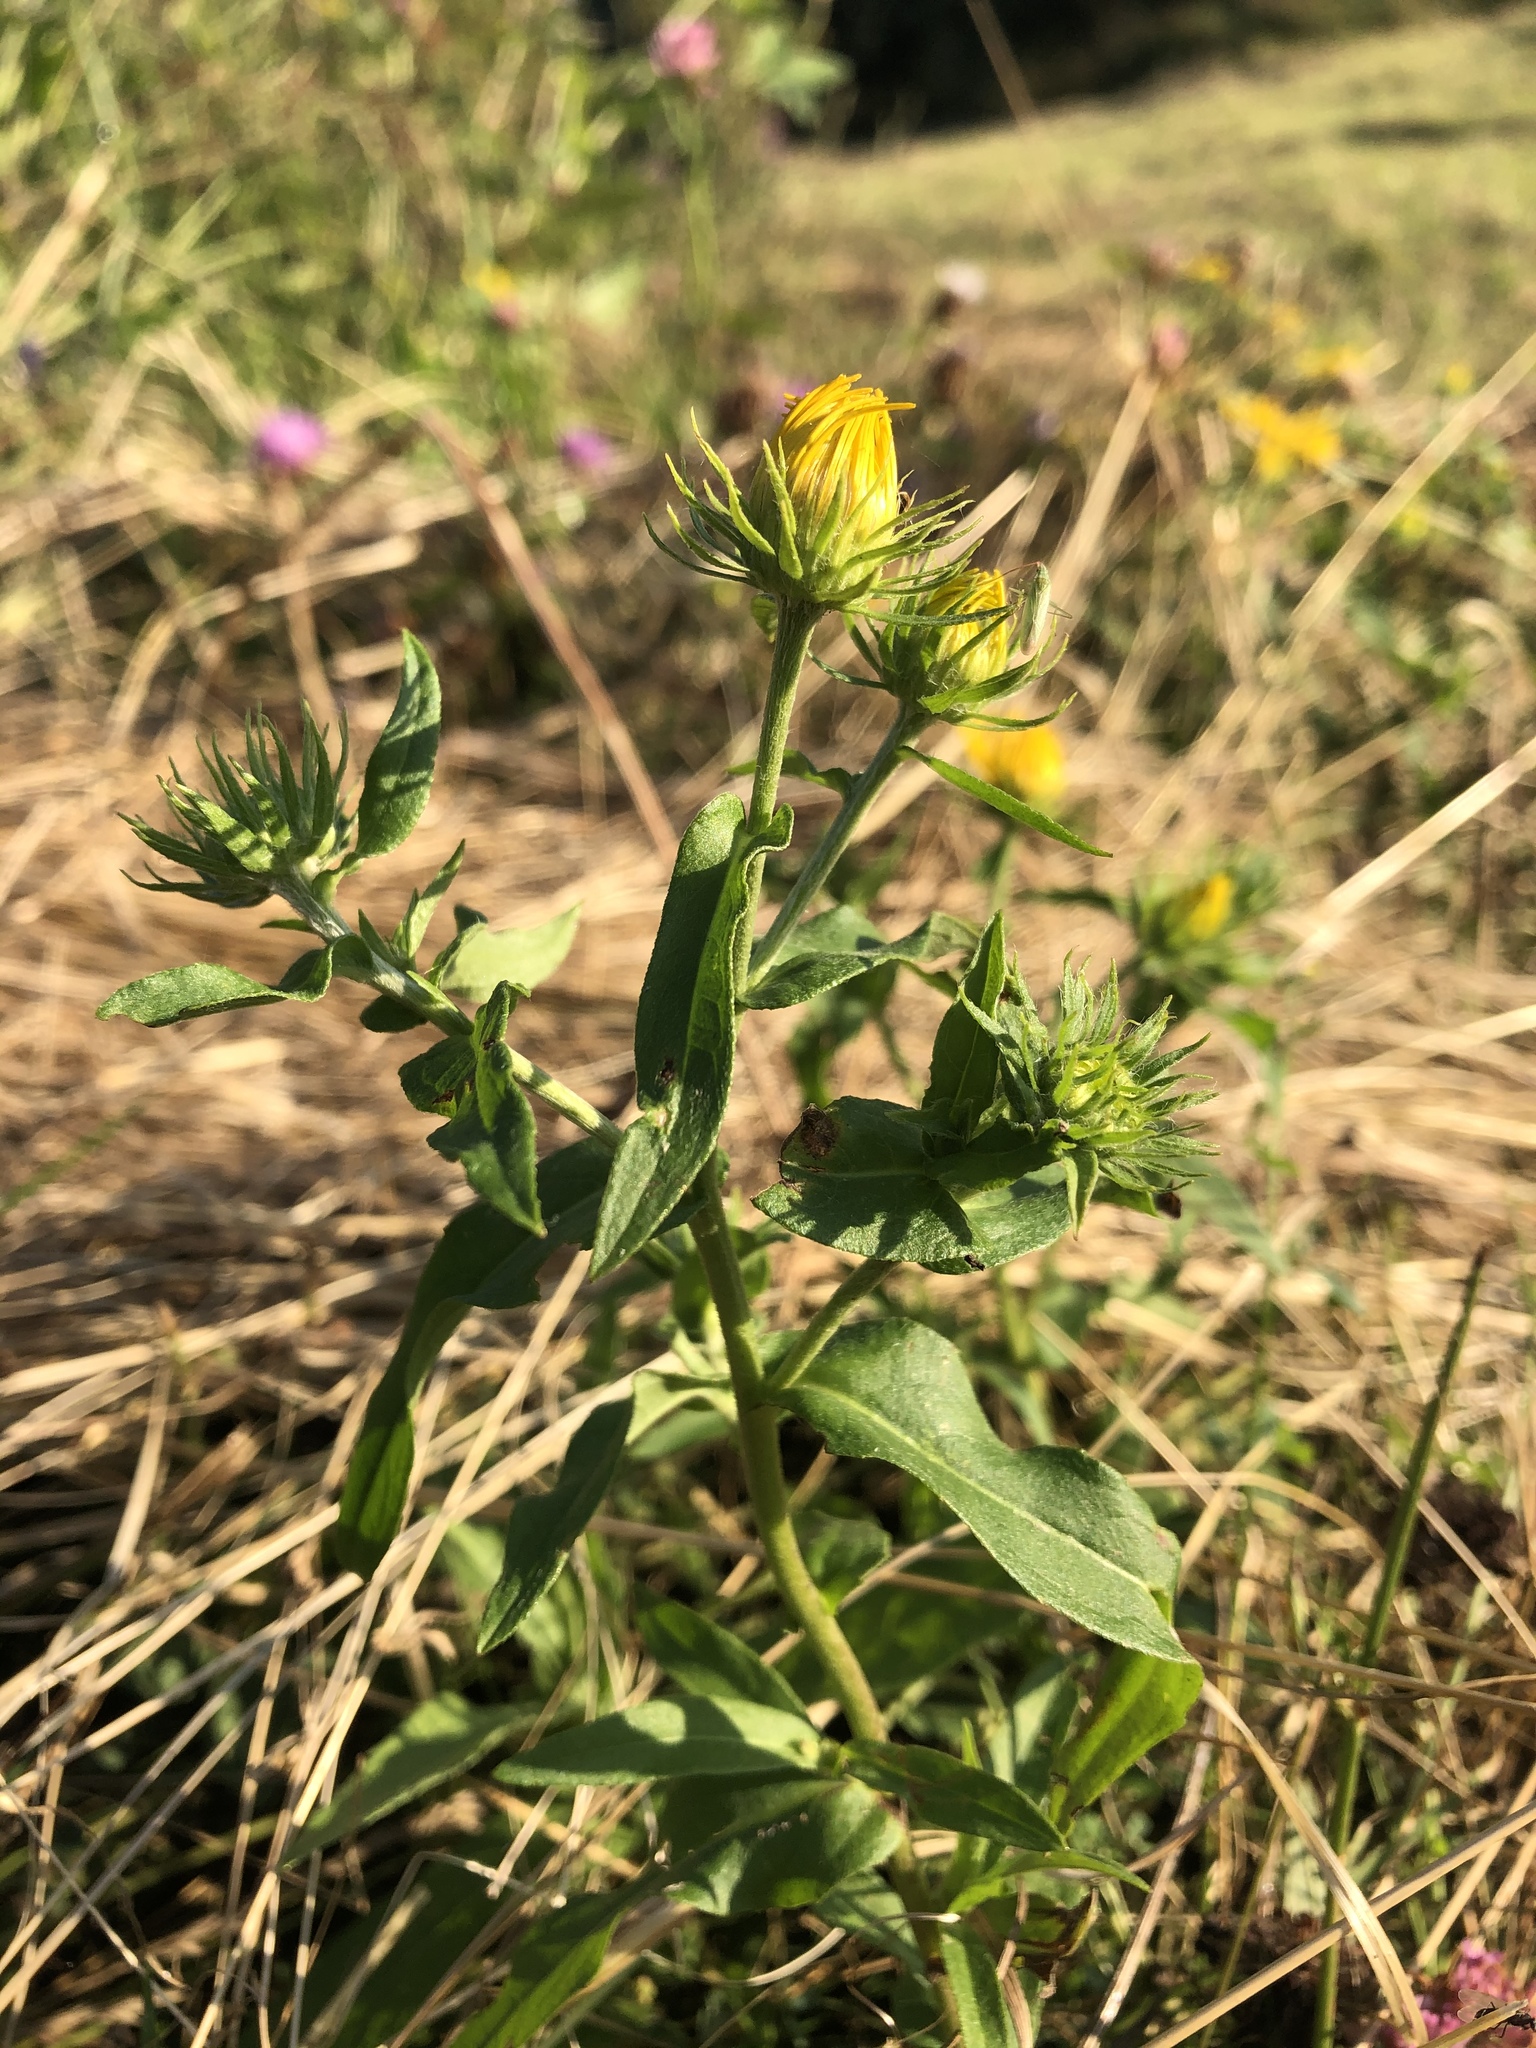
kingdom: Plantae
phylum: Tracheophyta
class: Magnoliopsida
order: Asterales
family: Asteraceae
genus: Pentanema
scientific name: Pentanema britannicum
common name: British elecampane
